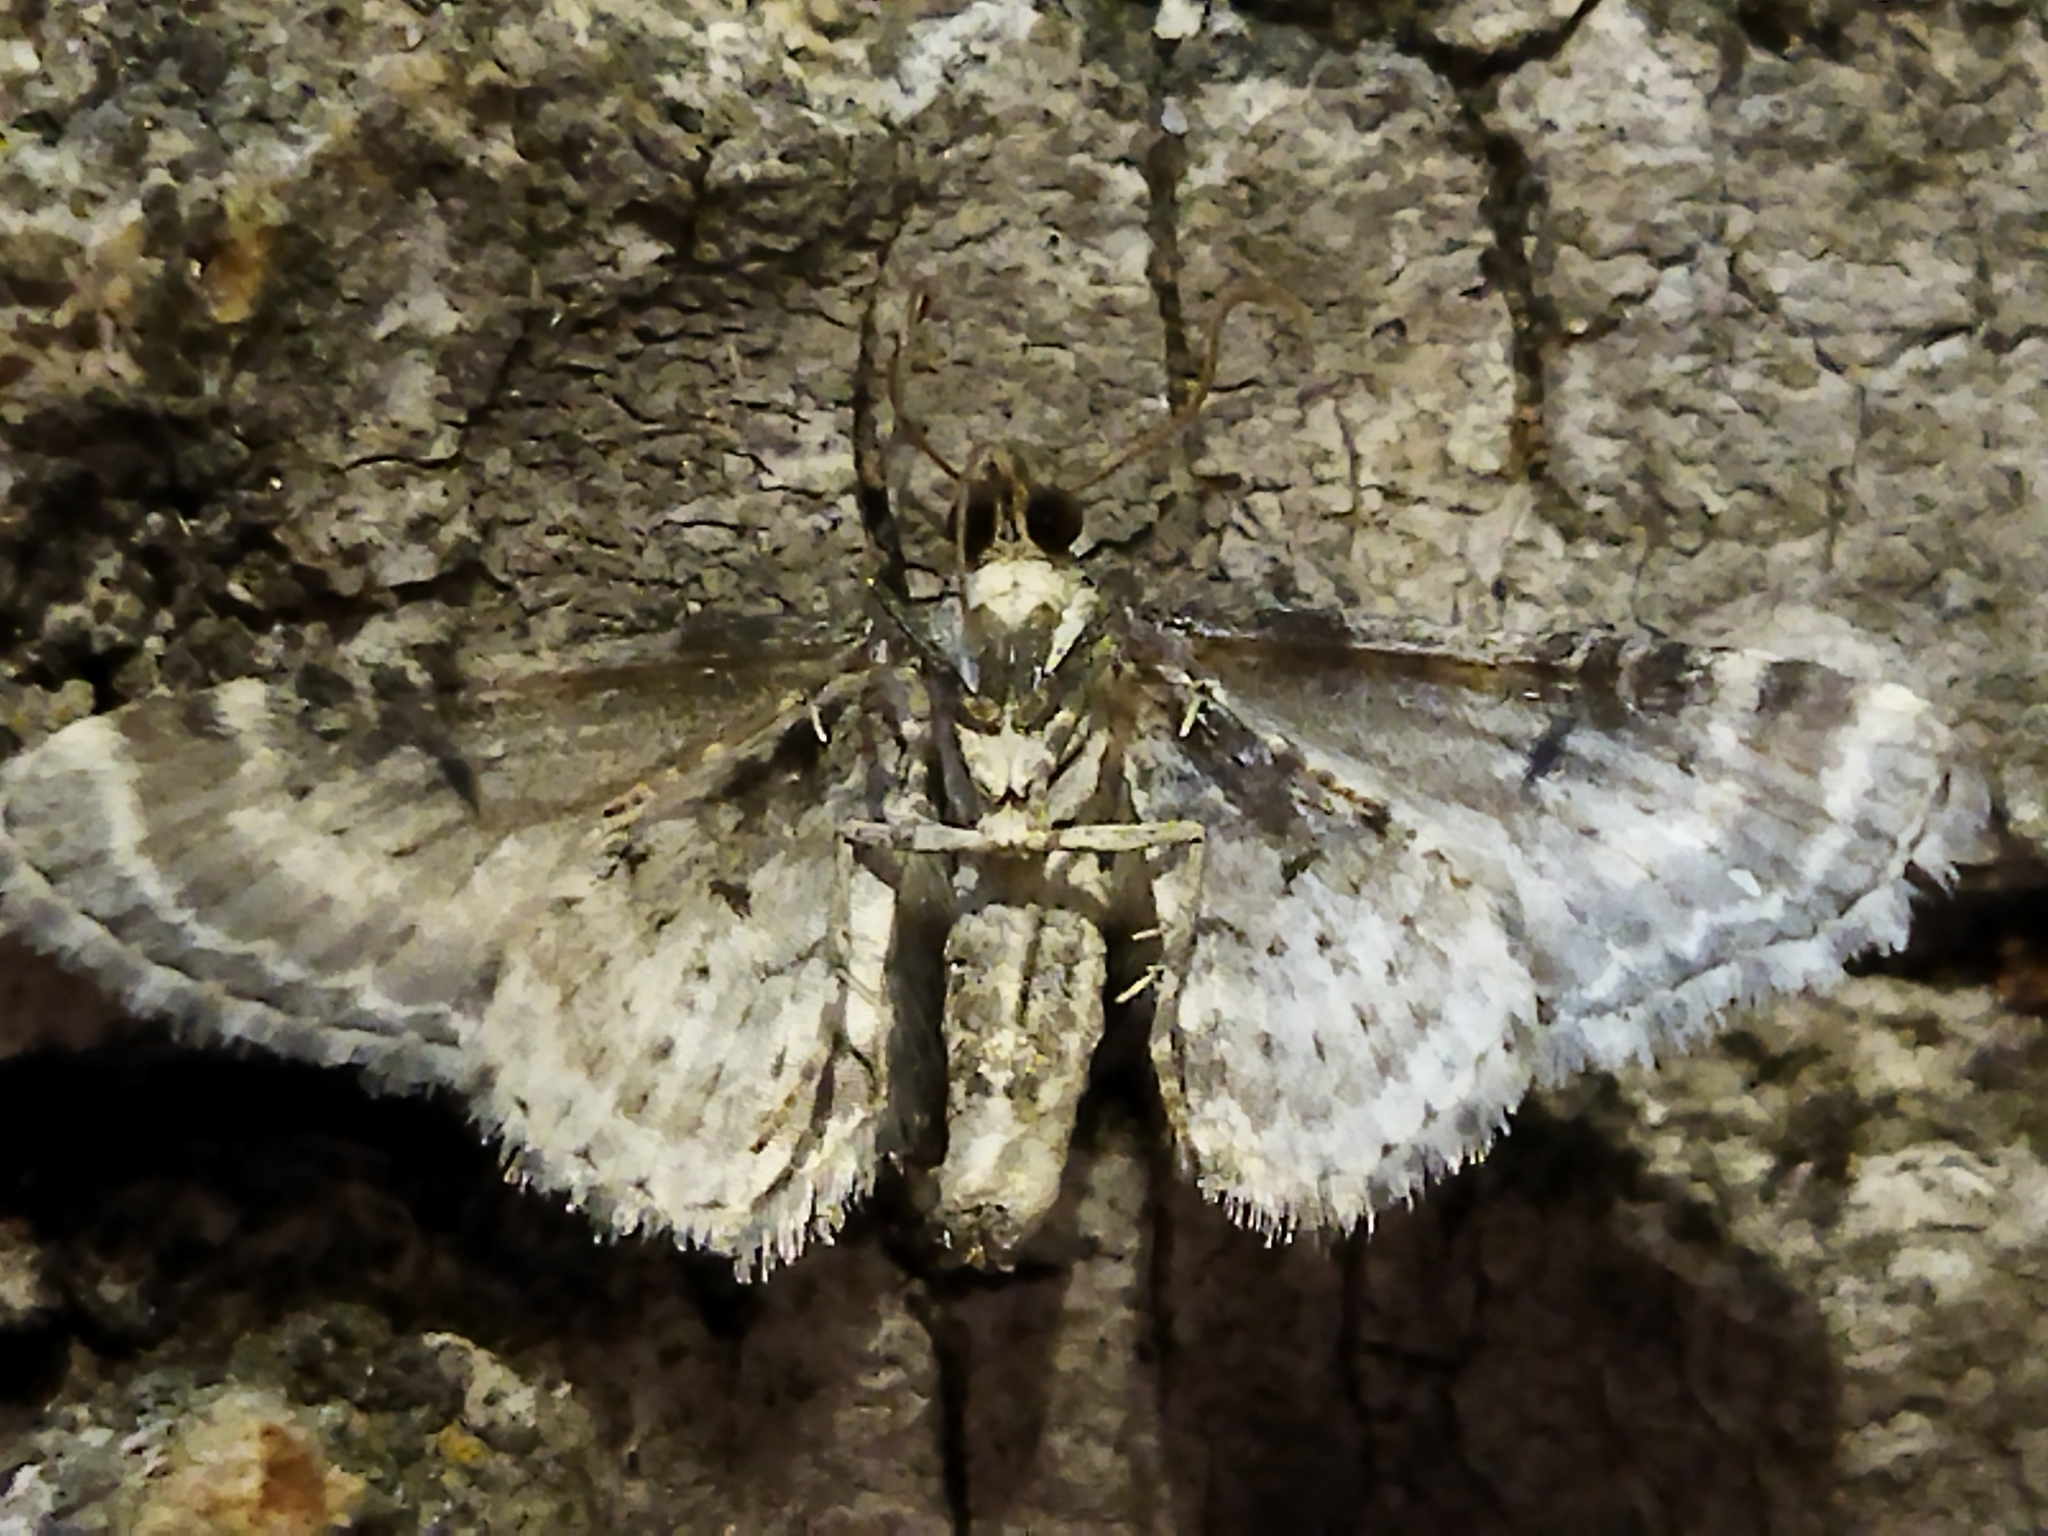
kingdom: Animalia
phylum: Arthropoda
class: Insecta
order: Lepidoptera
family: Geometridae
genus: Eupithecia
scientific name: Eupithecia centaureata
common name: Lime-speck pug
